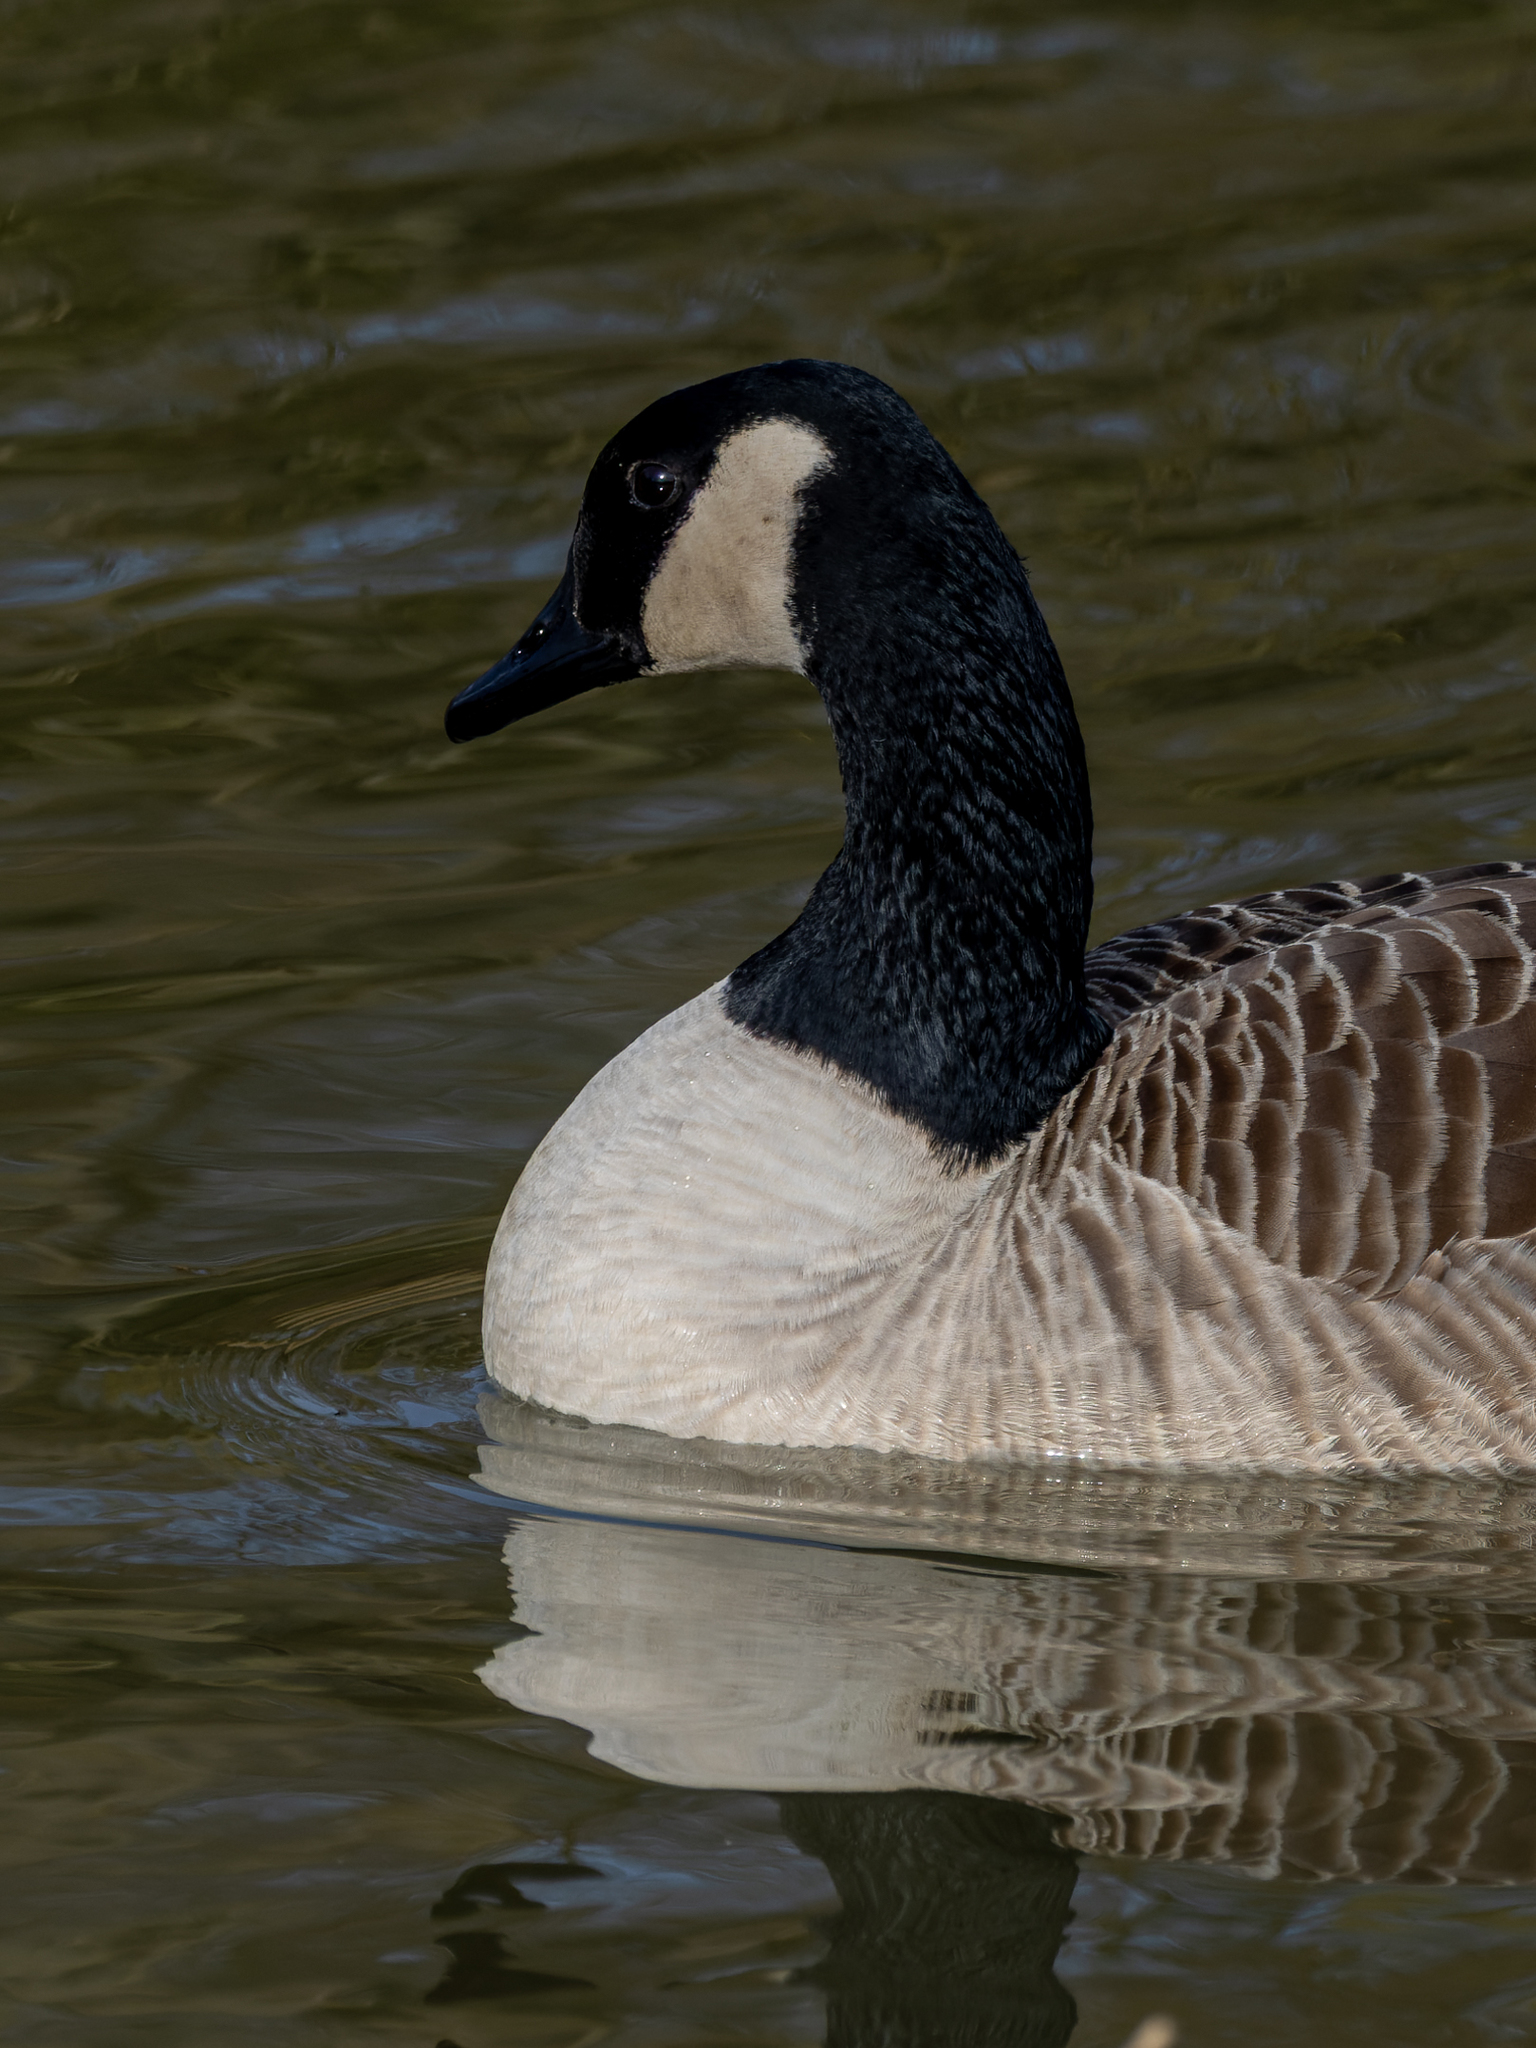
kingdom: Animalia
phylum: Chordata
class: Aves
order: Anseriformes
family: Anatidae
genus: Branta
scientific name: Branta canadensis
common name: Canada goose
